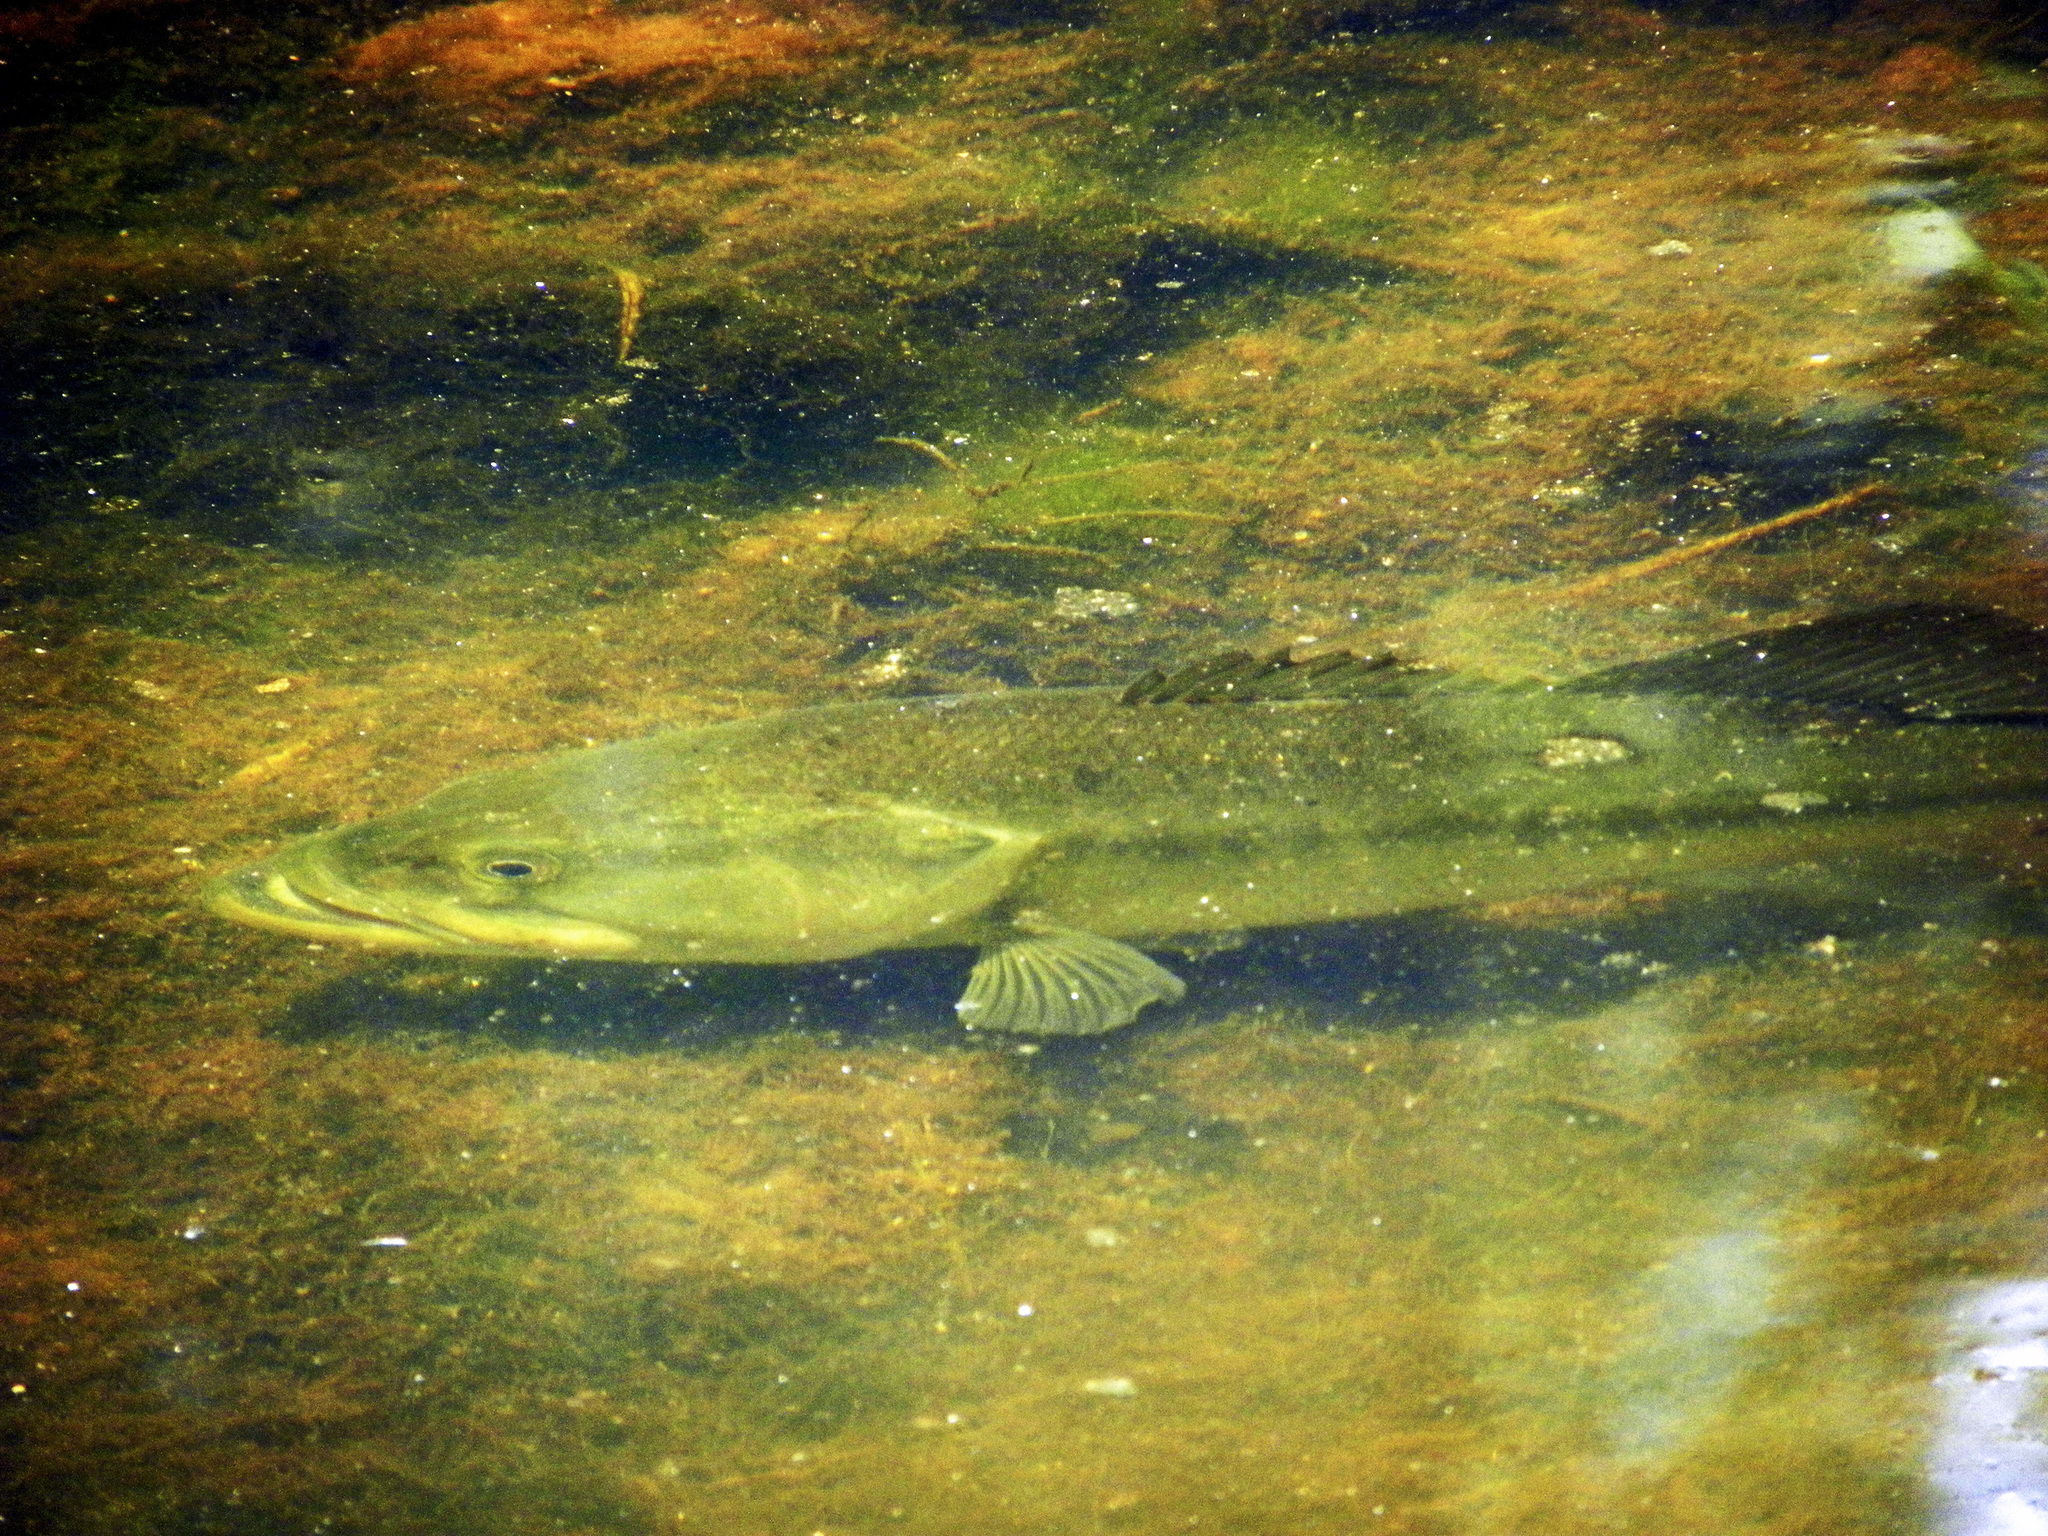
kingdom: Animalia
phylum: Chordata
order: Perciformes
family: Centrarchidae
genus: Micropterus
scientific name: Micropterus
